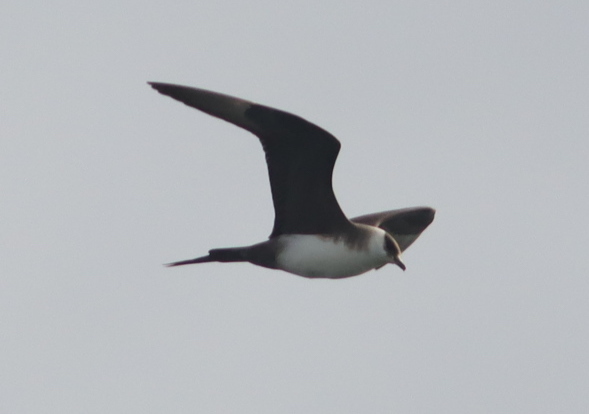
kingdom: Animalia
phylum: Chordata
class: Aves
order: Charadriiformes
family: Stercorariidae
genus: Stercorarius
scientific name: Stercorarius parasiticus
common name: Parasitic jaeger
